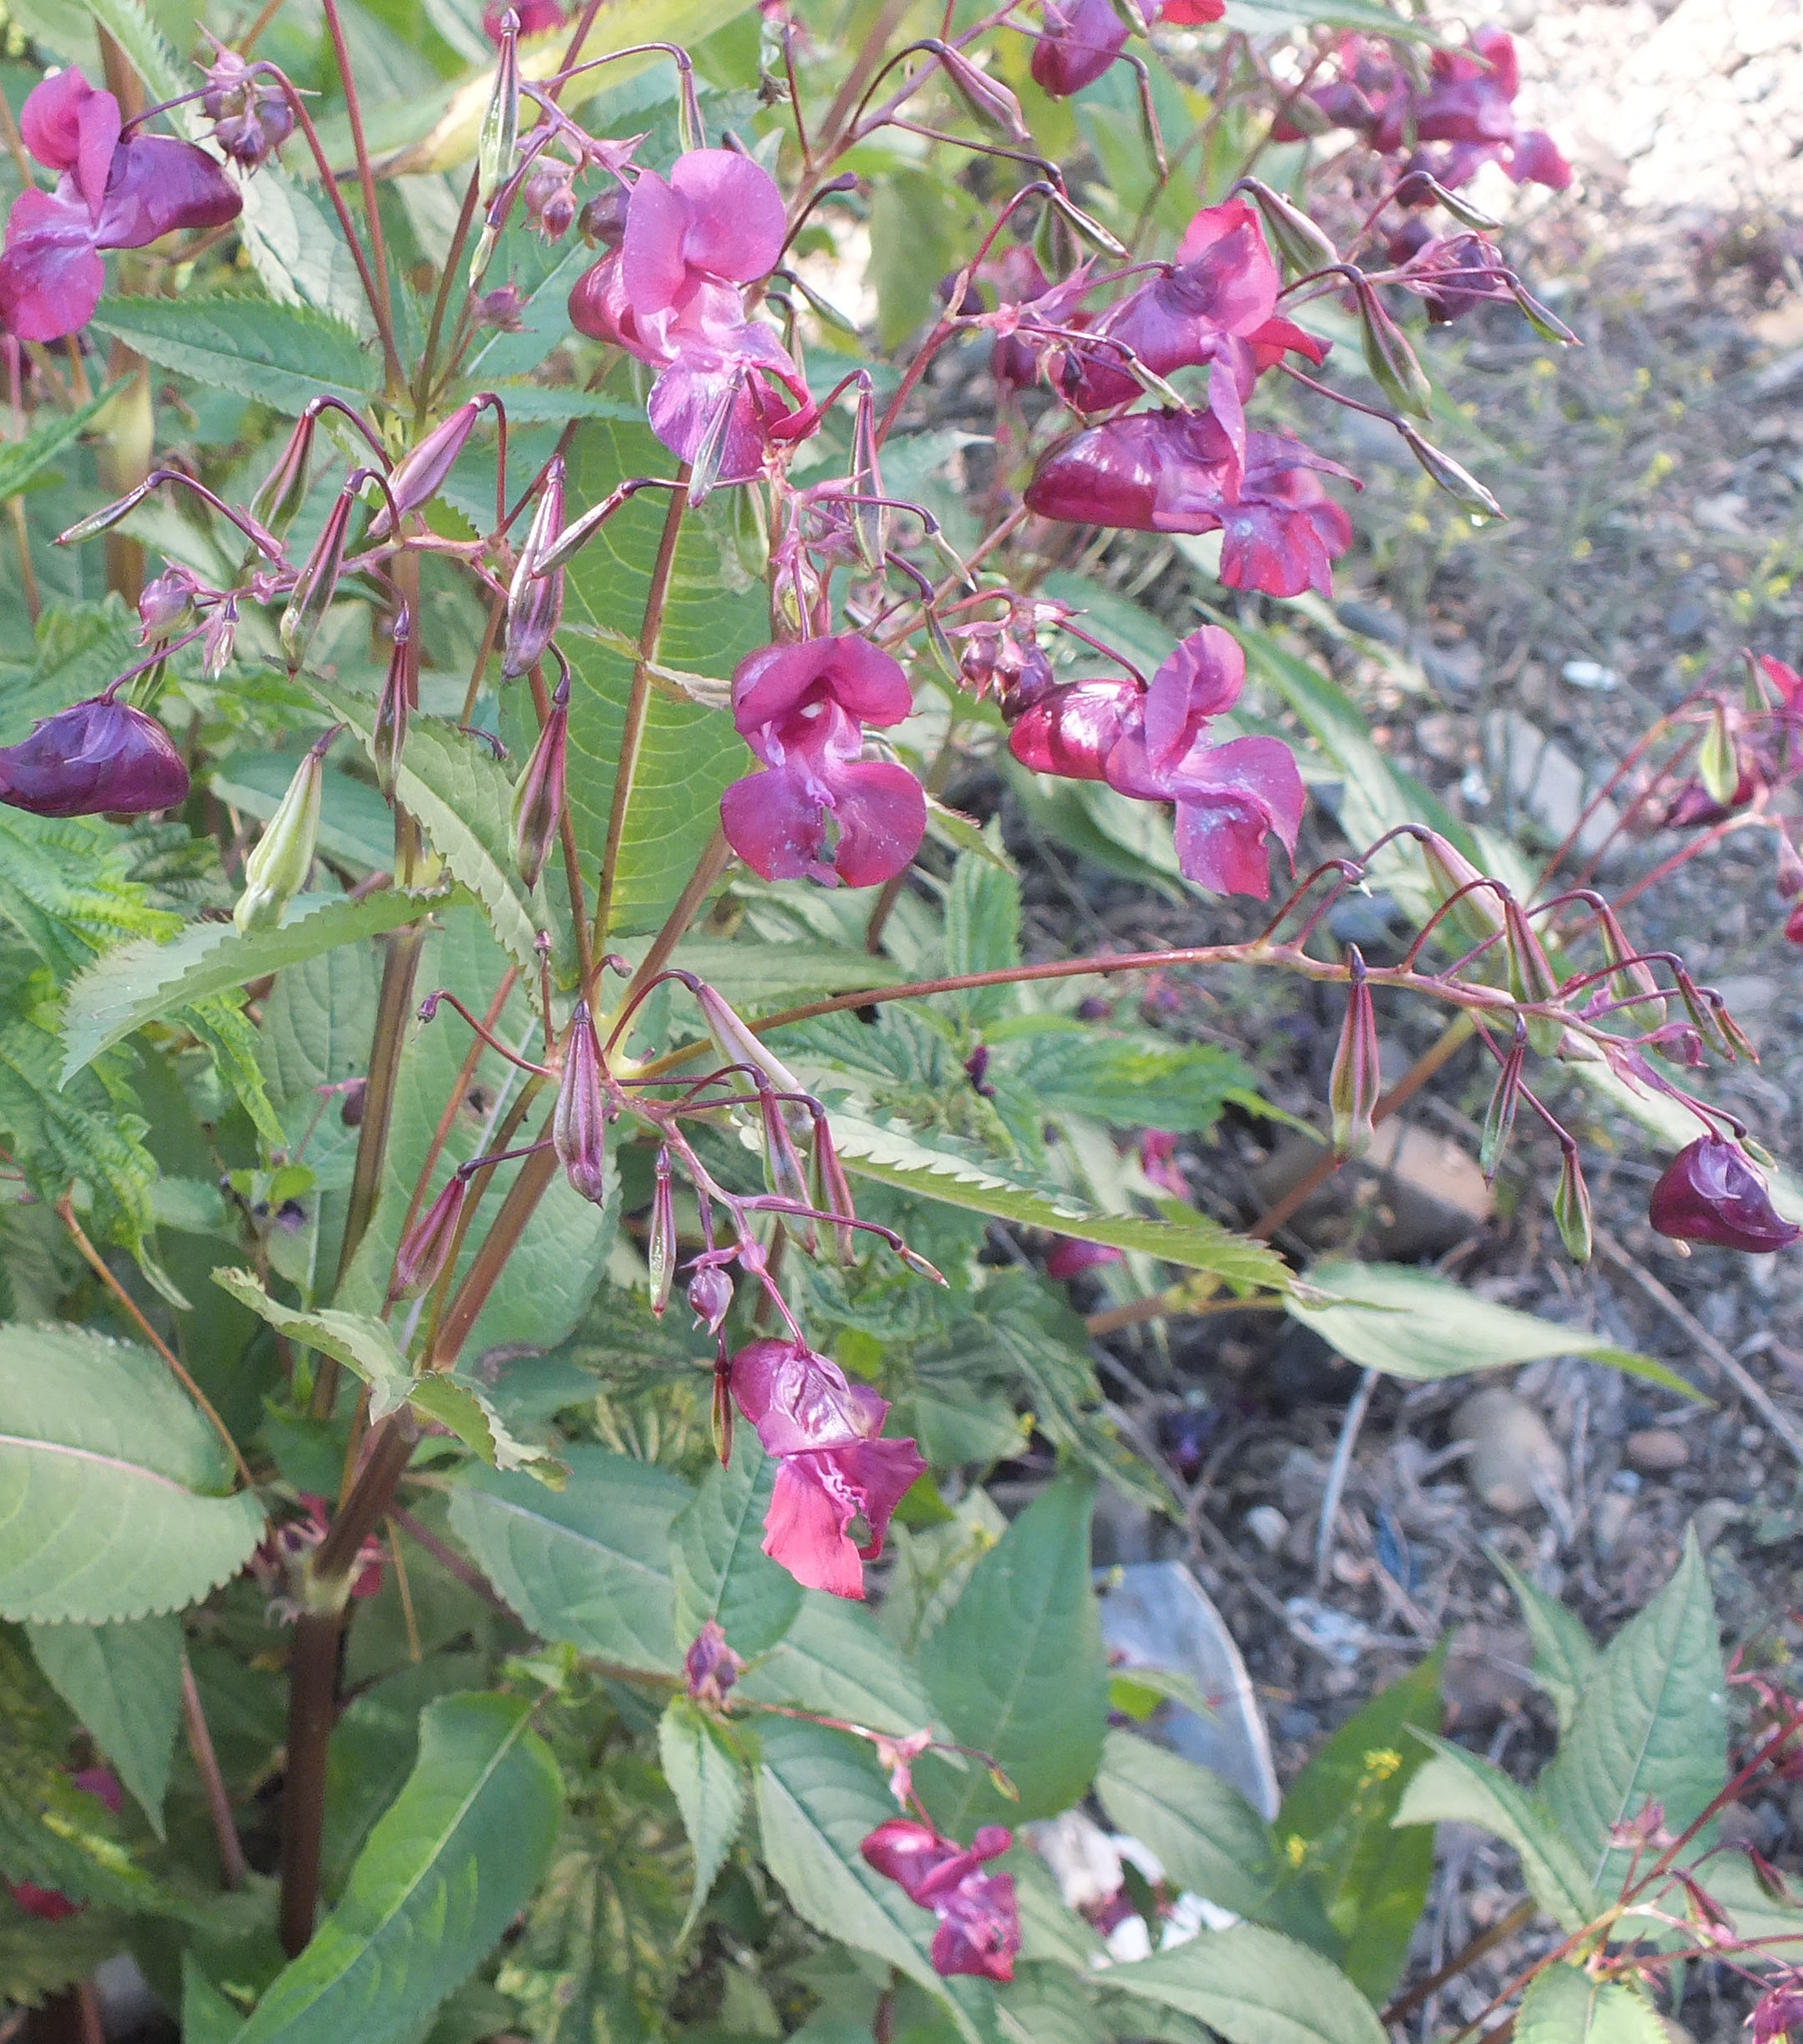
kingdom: Plantae
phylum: Tracheophyta
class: Magnoliopsida
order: Ericales
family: Balsaminaceae
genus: Impatiens
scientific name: Impatiens glandulifera
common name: Himalayan balsam
